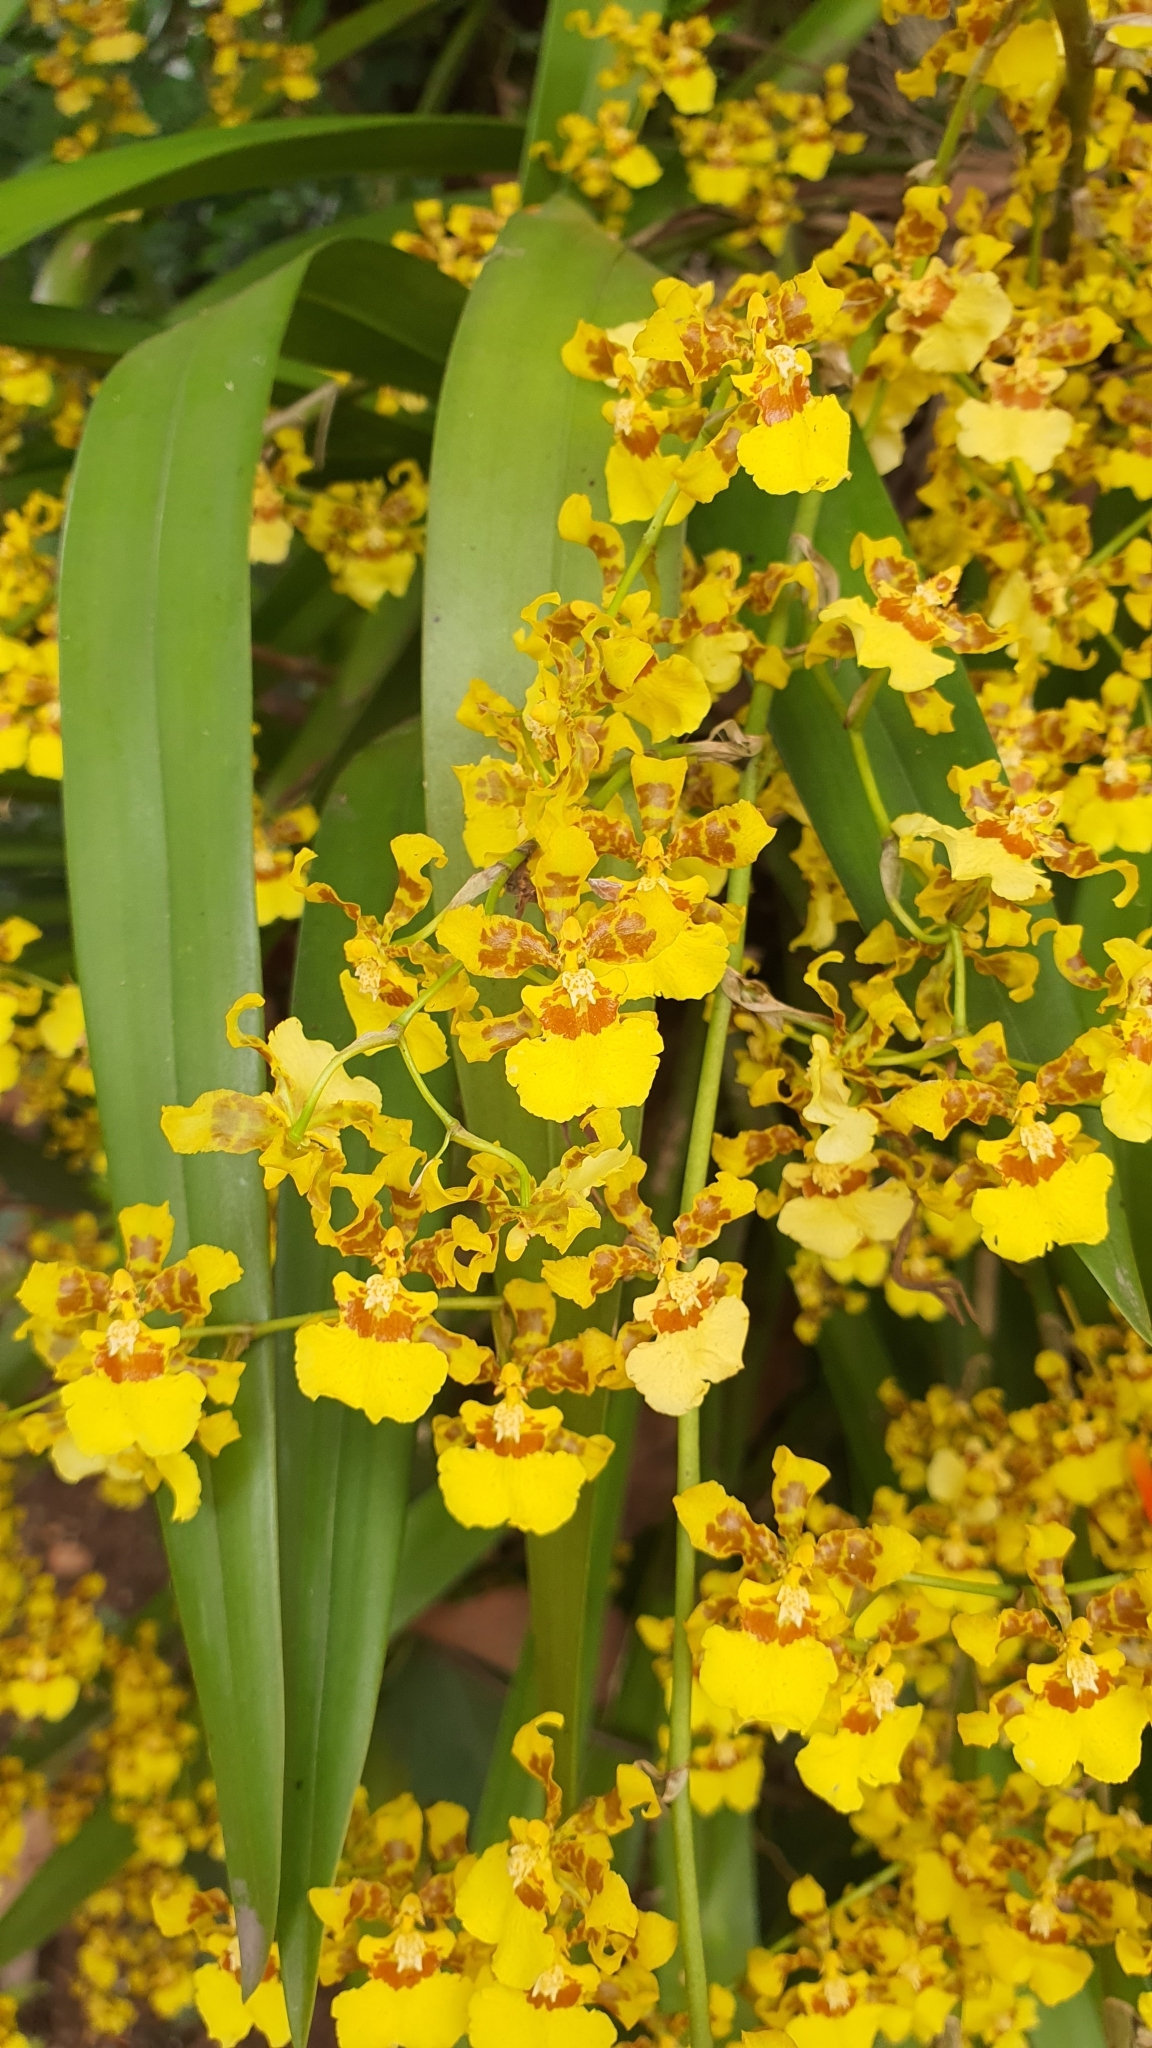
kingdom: Plantae
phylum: Tracheophyta
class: Liliopsida
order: Asparagales
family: Orchidaceae
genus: Oncidium
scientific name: Oncidium sphacelatum
